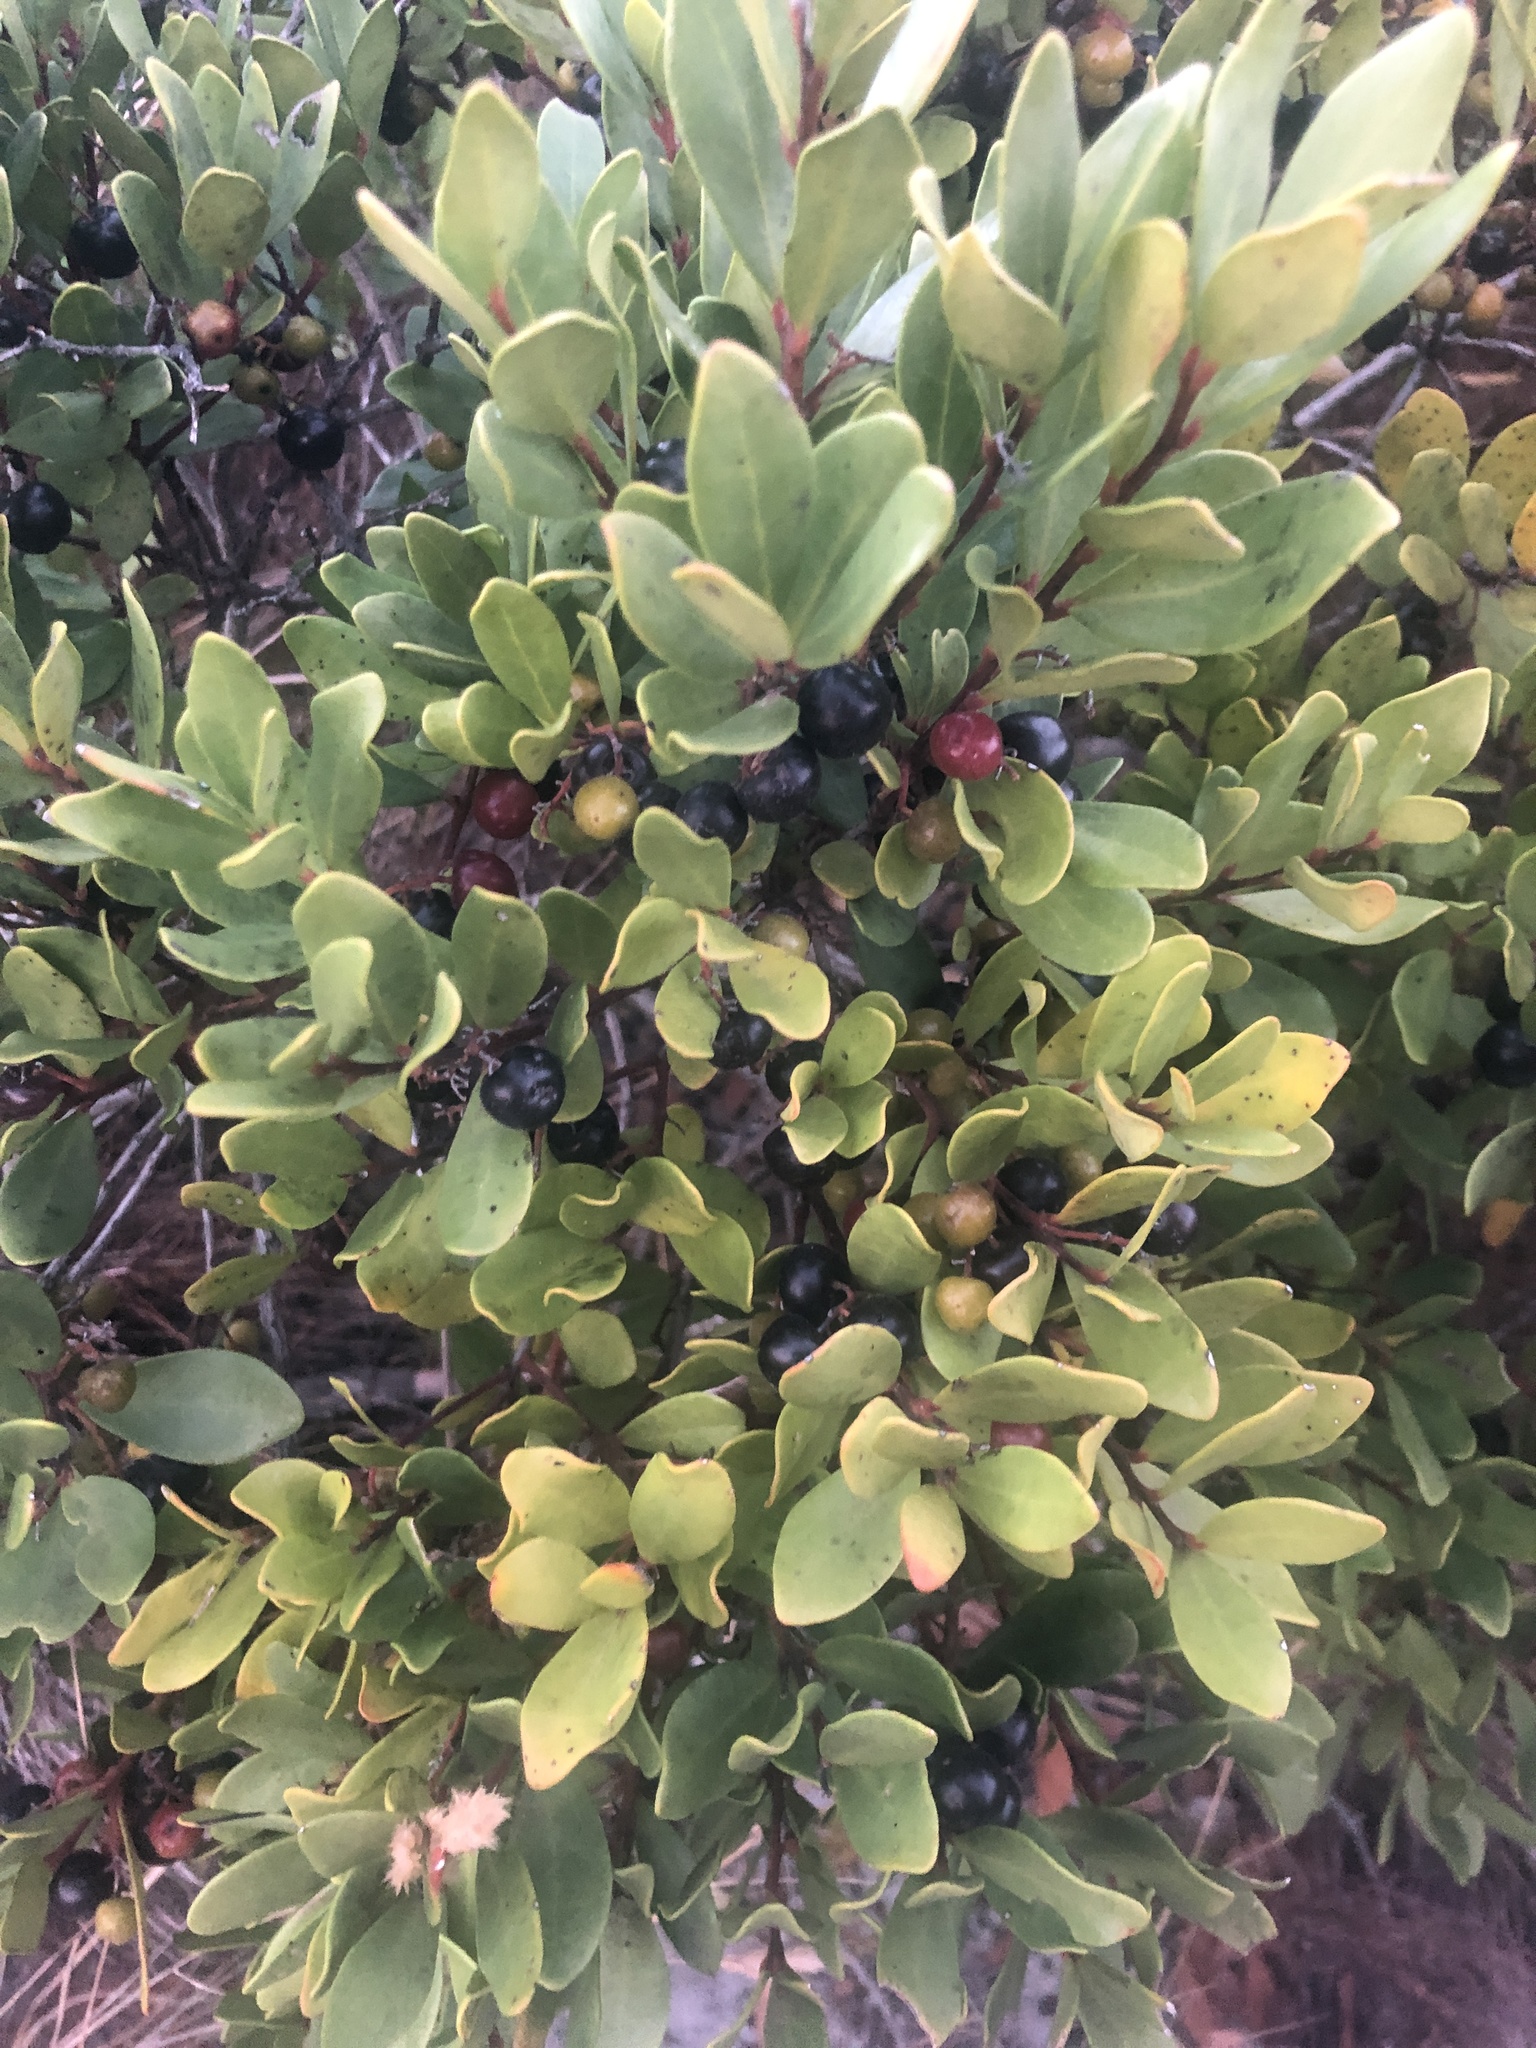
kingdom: Plantae
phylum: Tracheophyta
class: Magnoliopsida
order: Ericales
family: Ebenaceae
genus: Euclea
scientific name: Euclea racemosa
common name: Dune guarri
